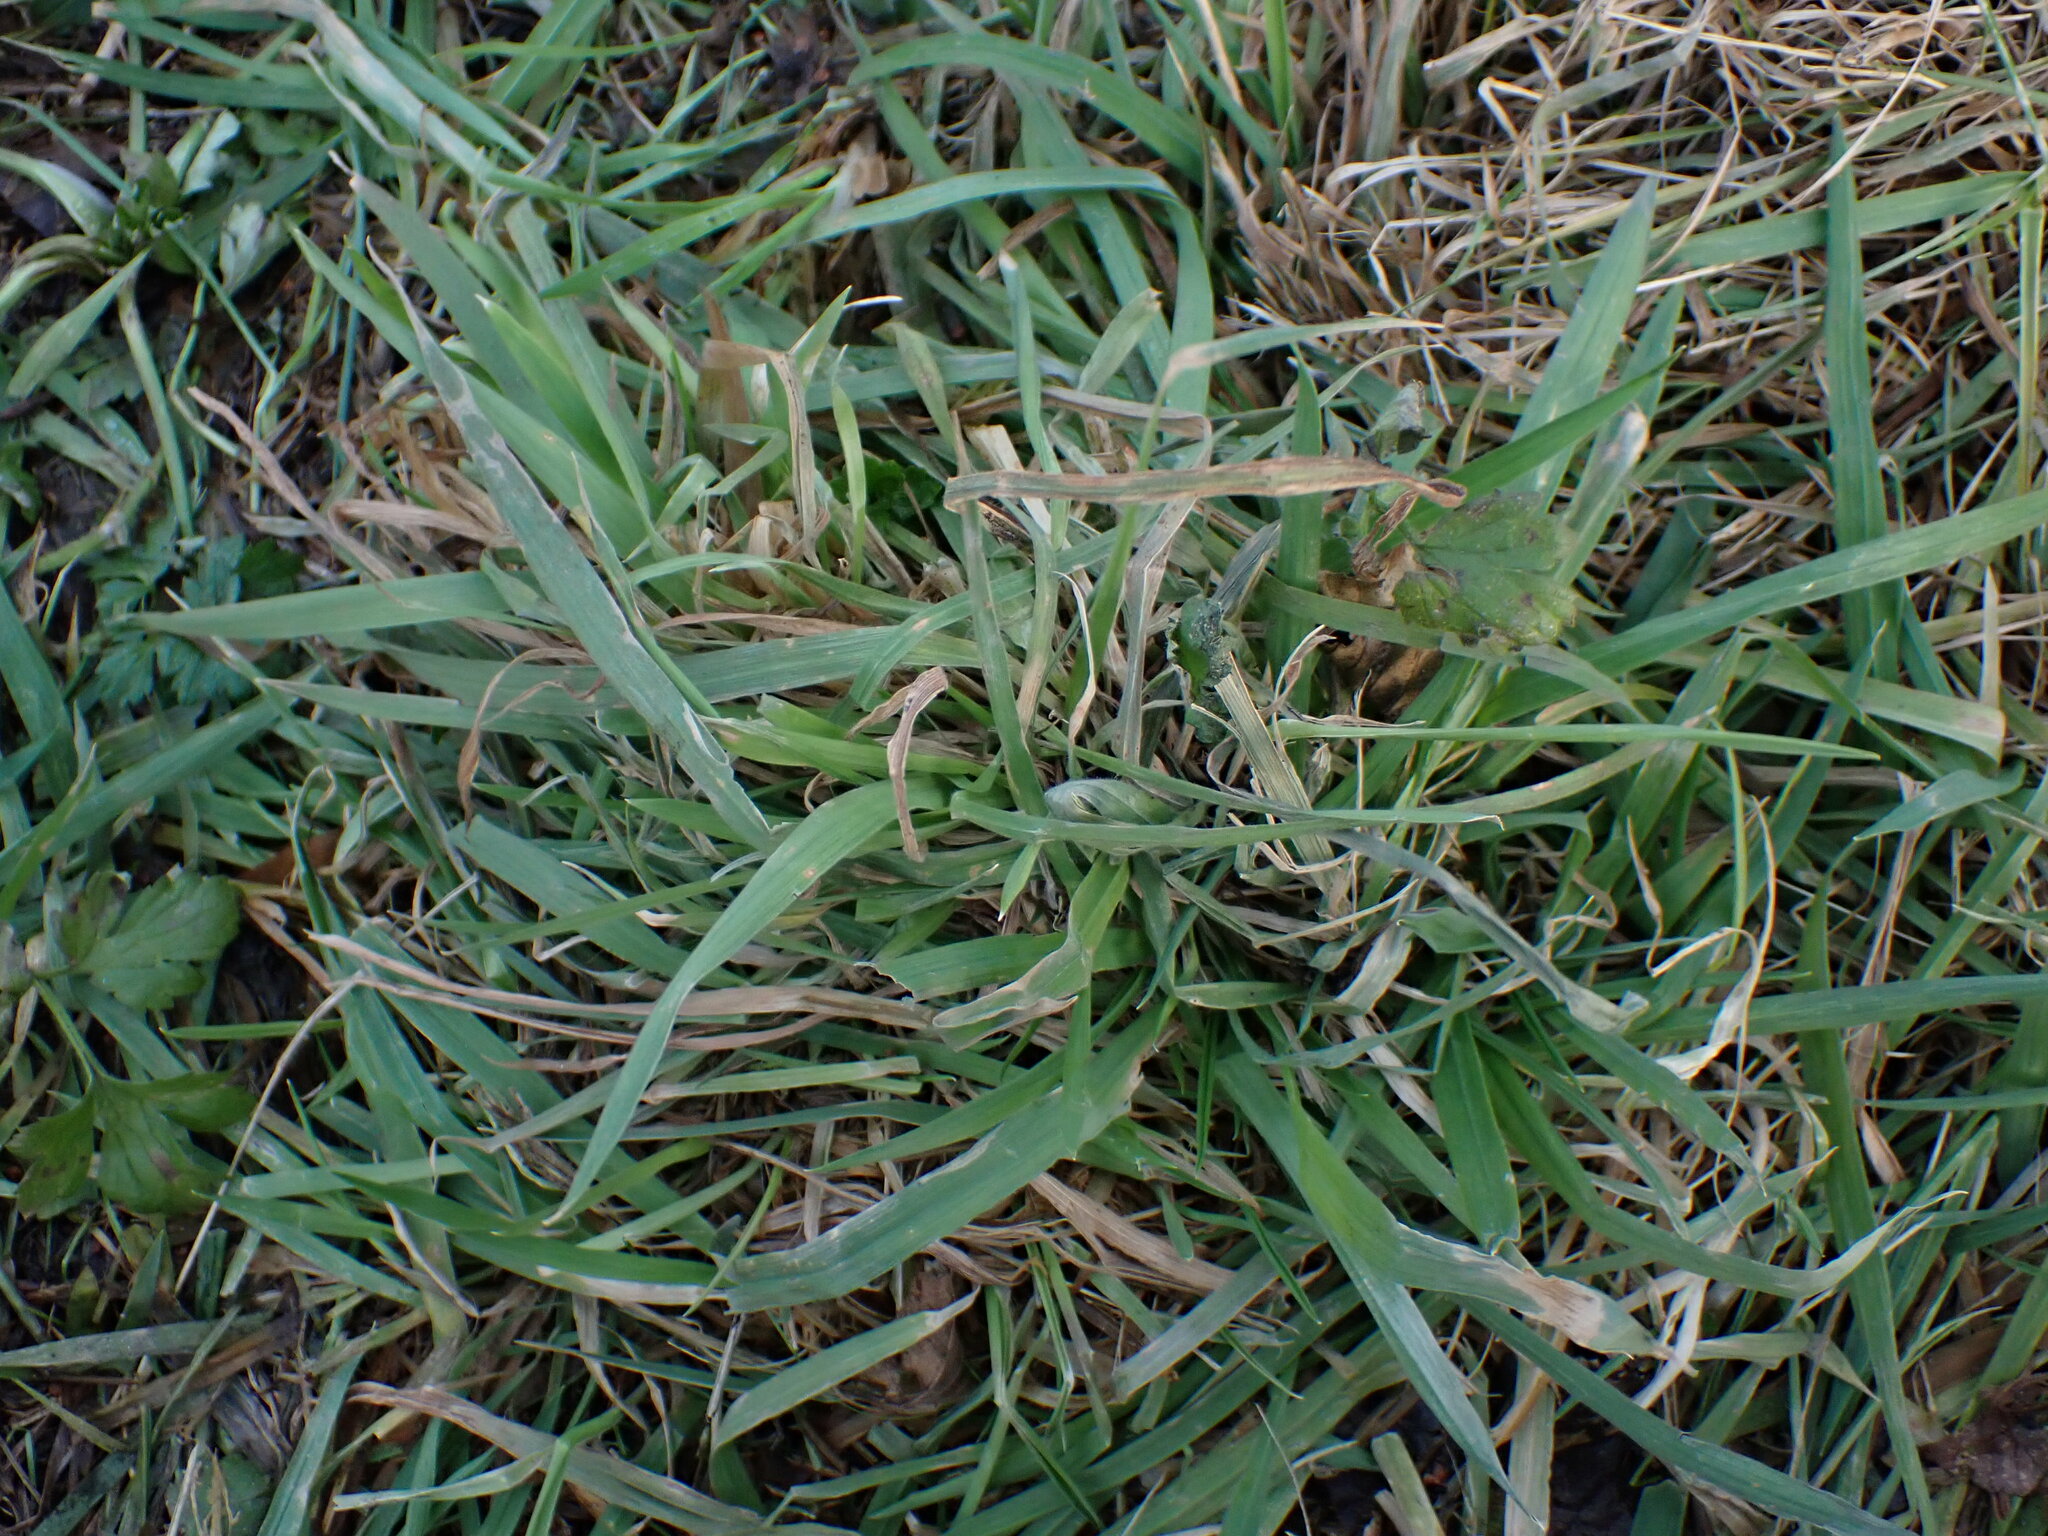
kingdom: Plantae
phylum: Tracheophyta
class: Liliopsida
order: Poales
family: Poaceae
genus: Holcus
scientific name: Holcus lanatus
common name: Yorkshire-fog
